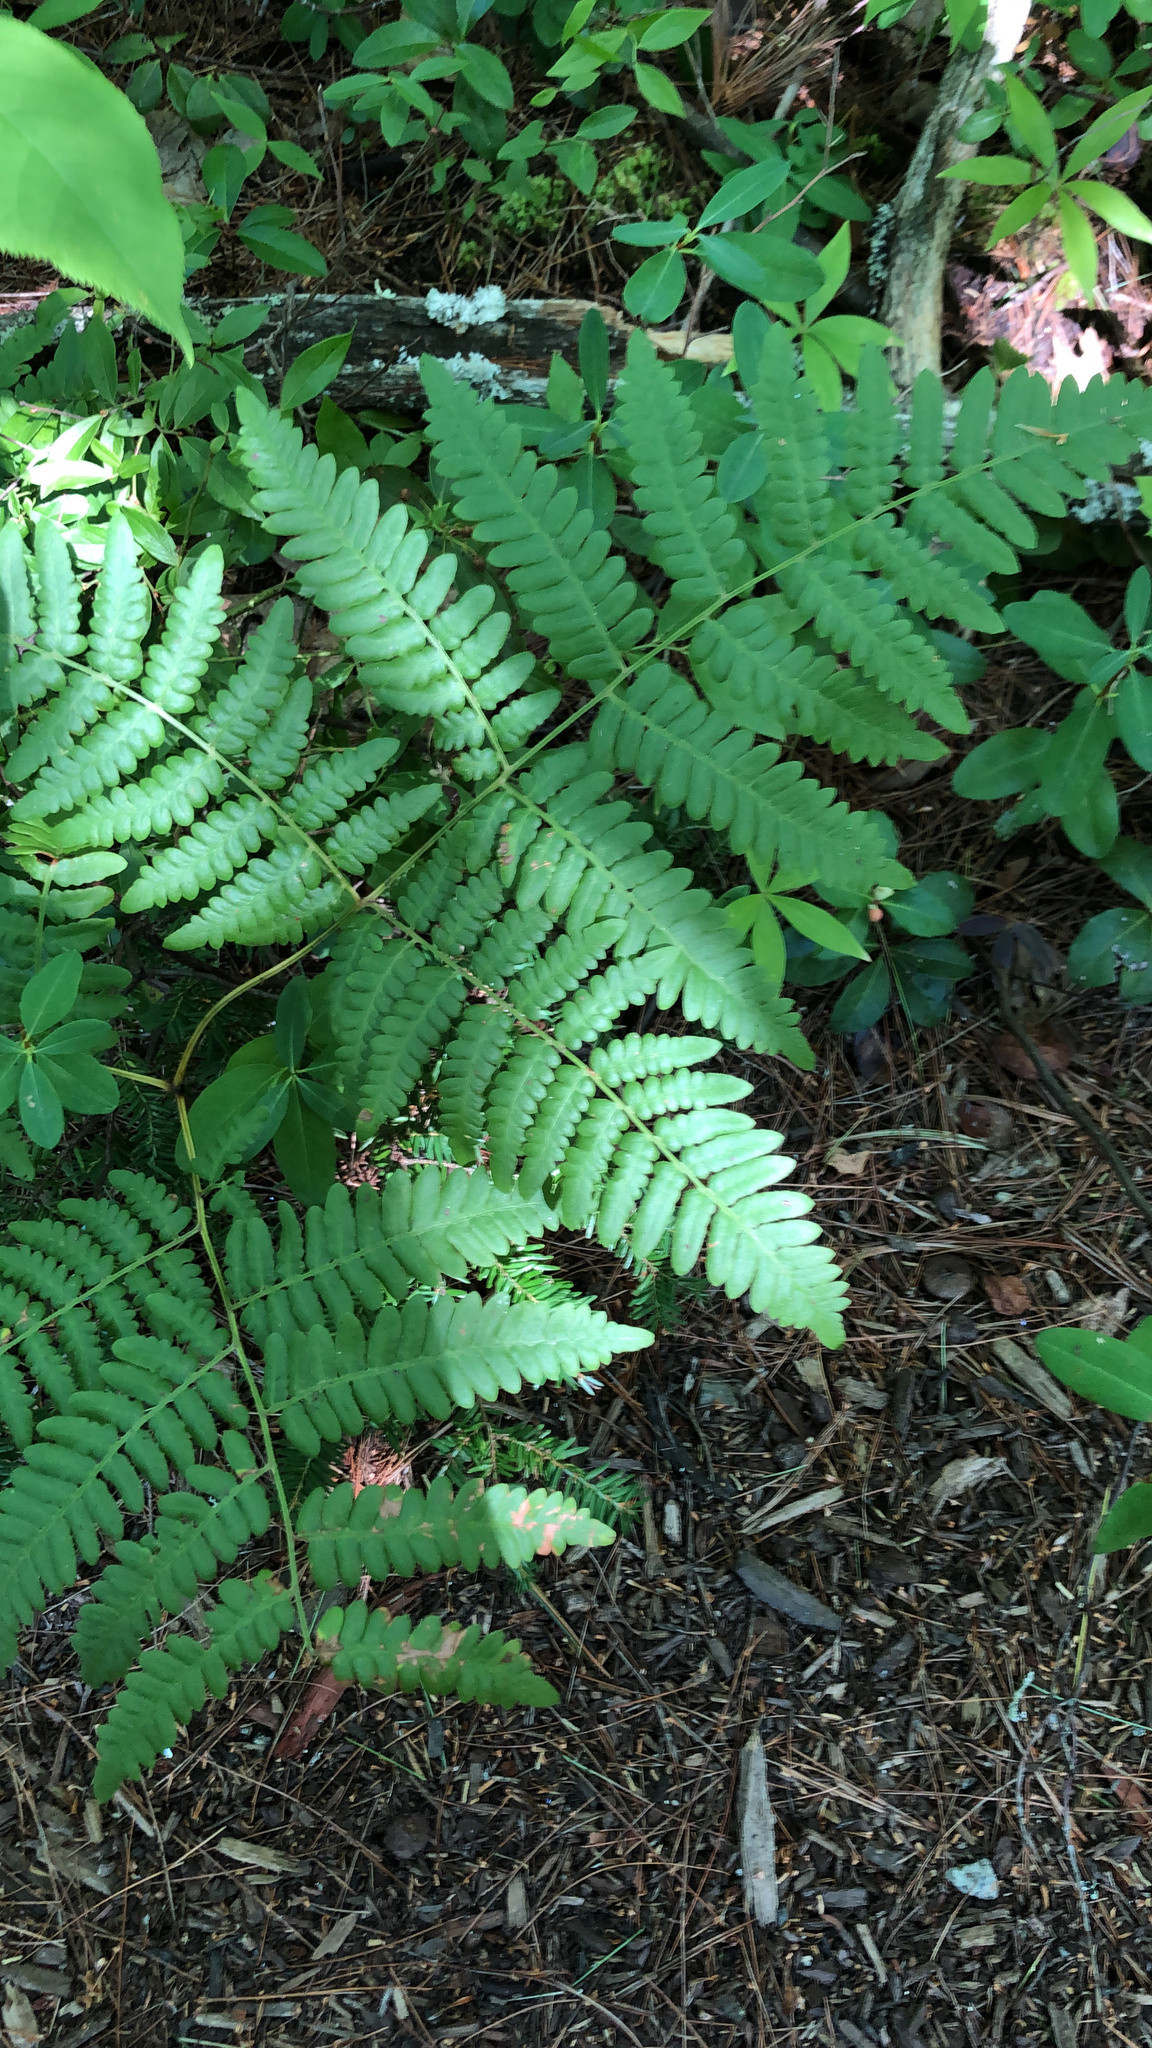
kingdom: Plantae
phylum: Tracheophyta
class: Polypodiopsida
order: Polypodiales
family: Dennstaedtiaceae
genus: Pteridium
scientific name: Pteridium aquilinum
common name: Bracken
